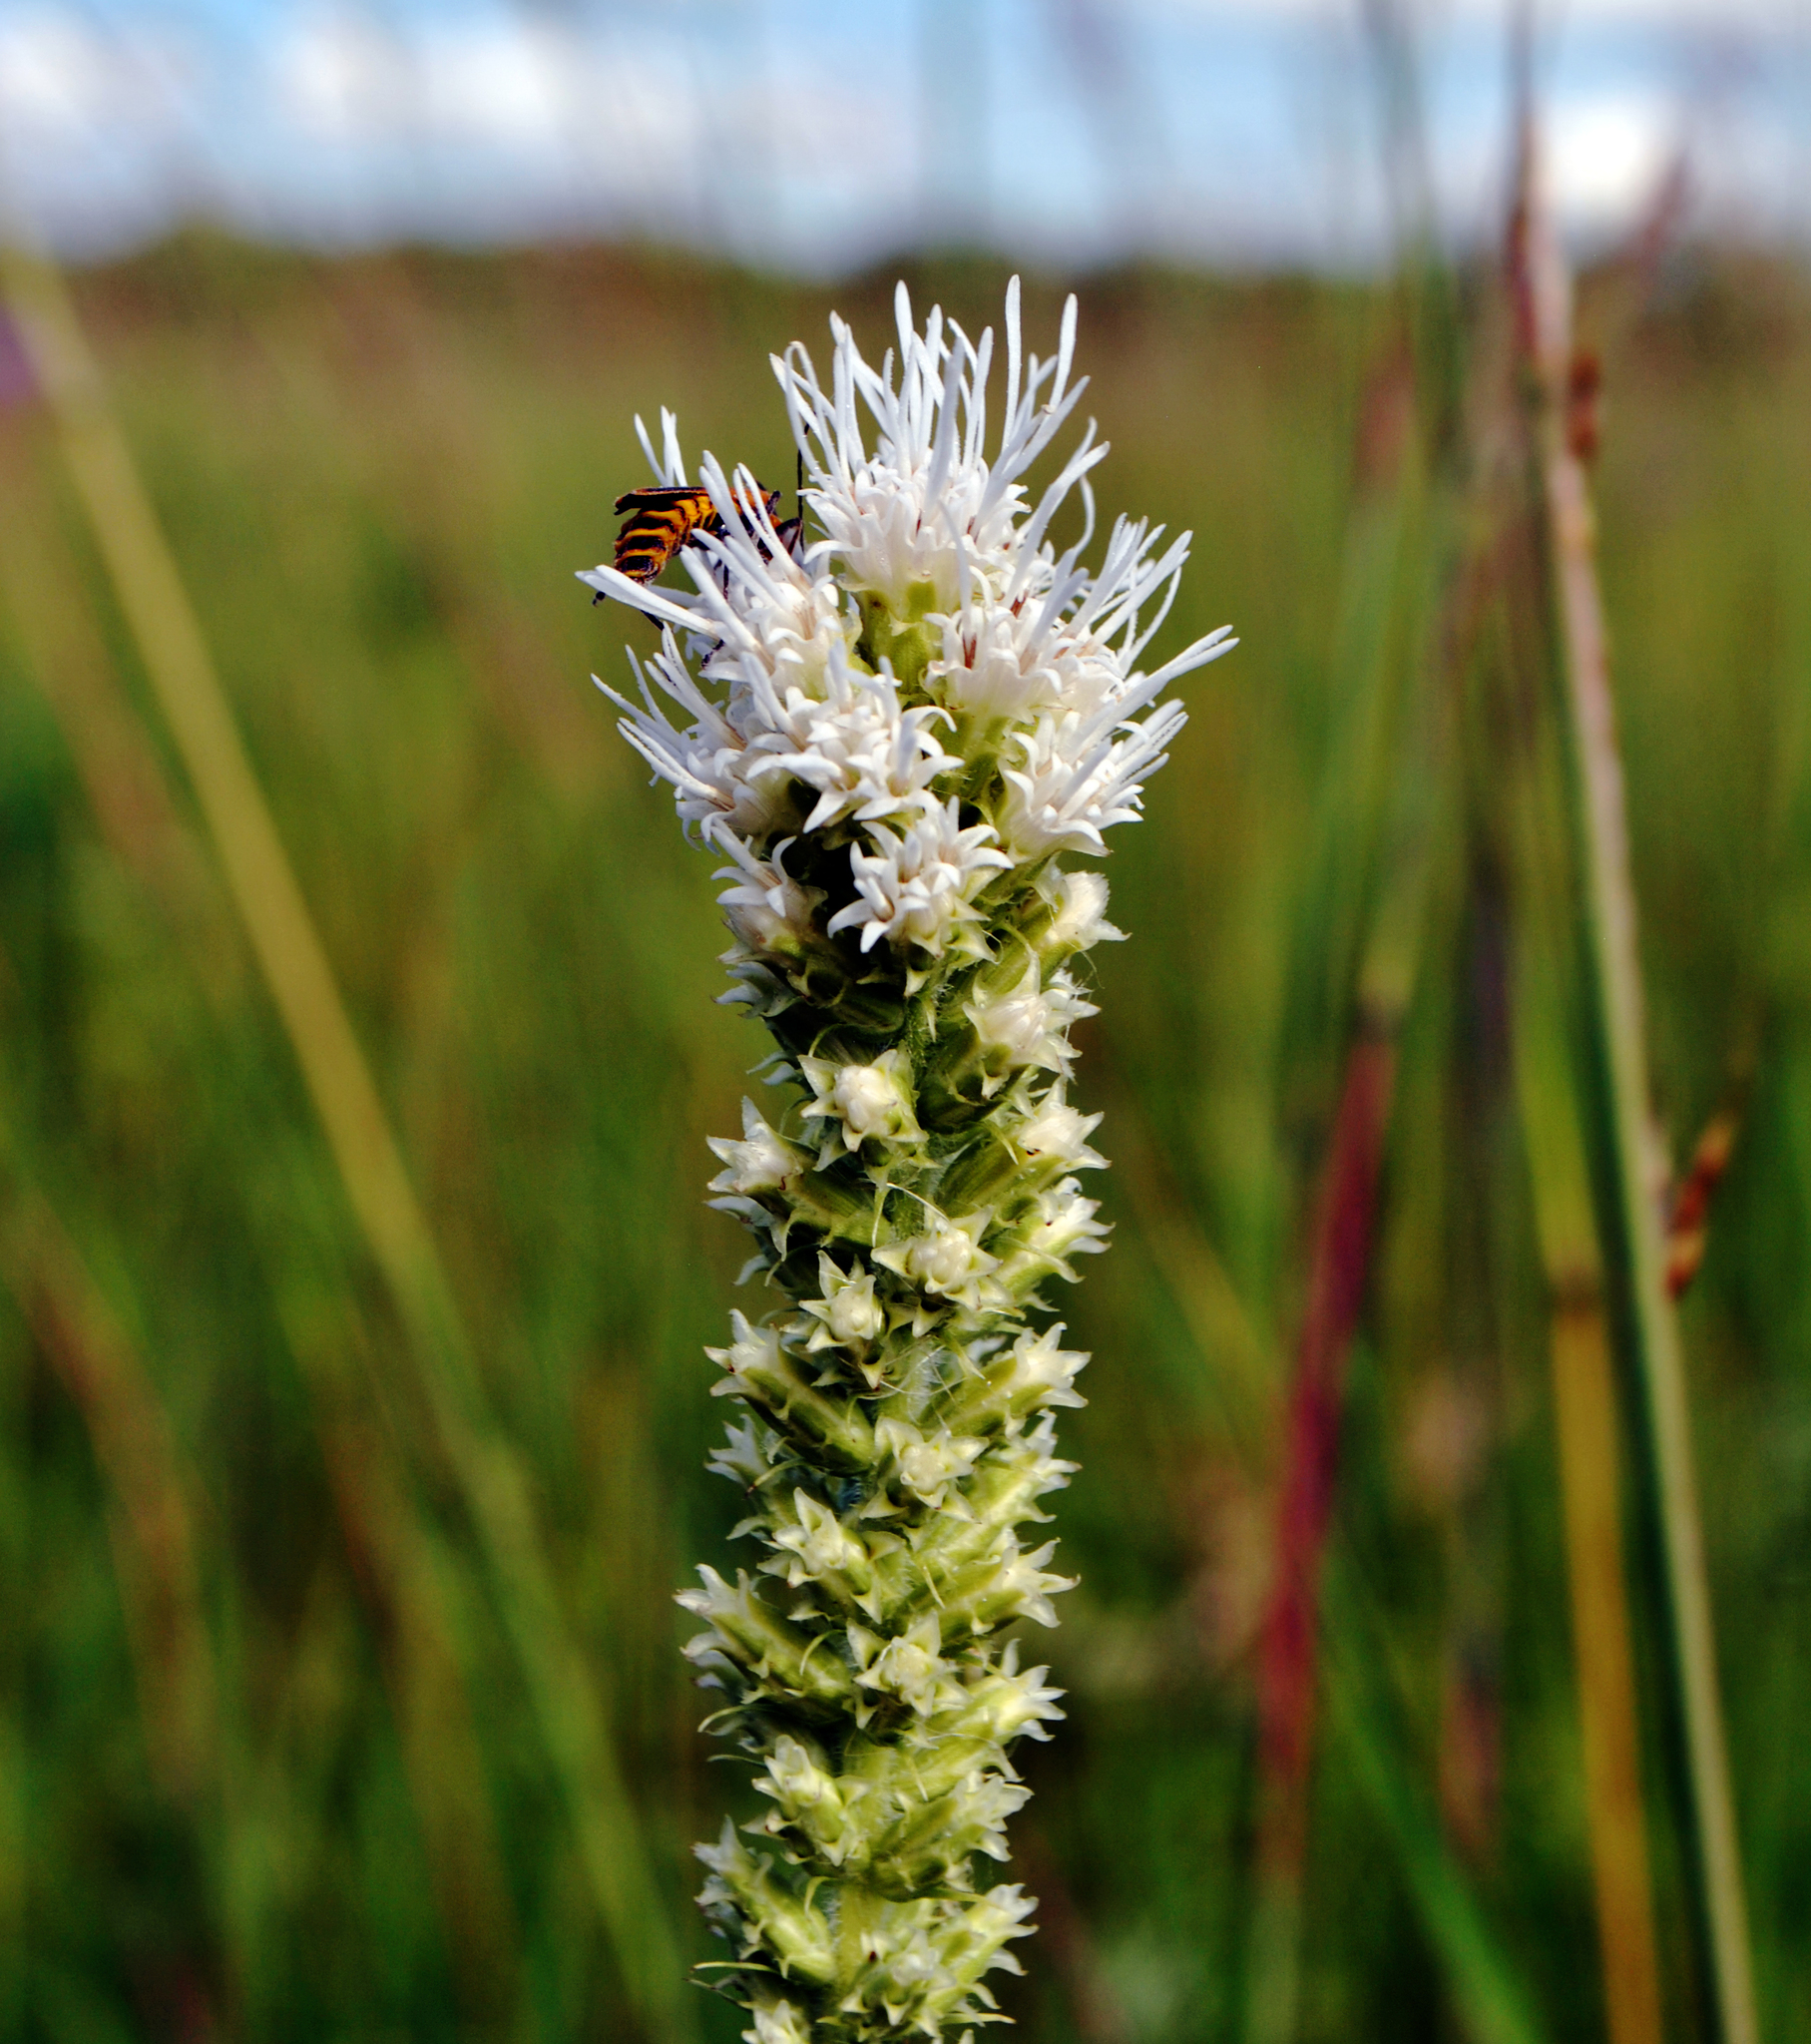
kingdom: Plantae
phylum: Tracheophyta
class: Magnoliopsida
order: Asterales
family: Asteraceae
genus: Liatris
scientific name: Liatris pycnostachya
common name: Cattail gayfeather
